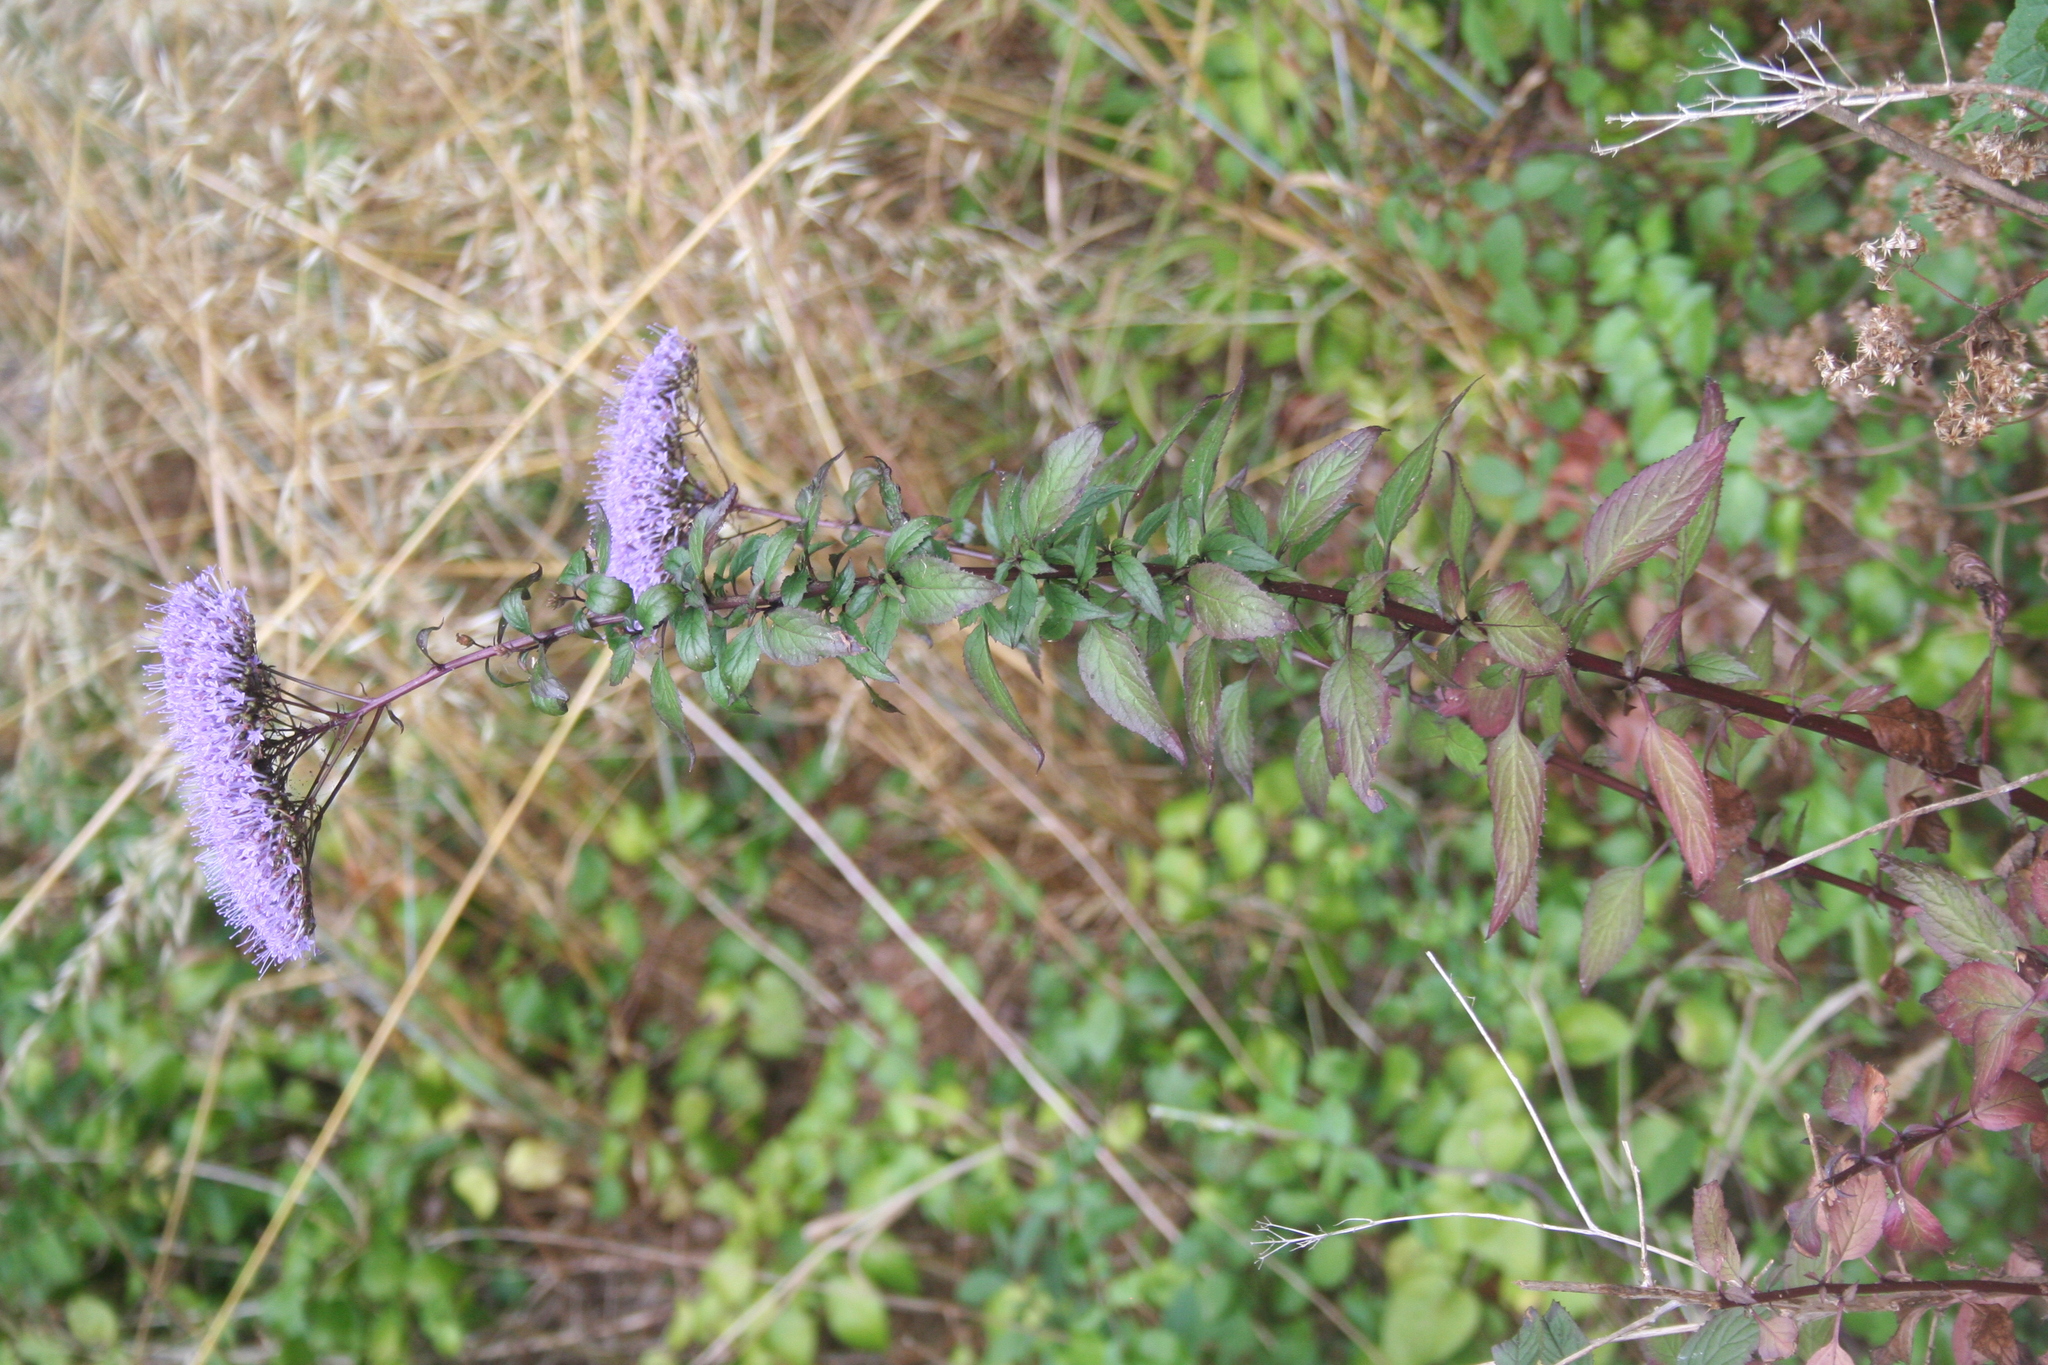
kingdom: Plantae
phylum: Tracheophyta
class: Magnoliopsida
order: Asterales
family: Campanulaceae
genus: Trachelium
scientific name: Trachelium caeruleum
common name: Throatwort
